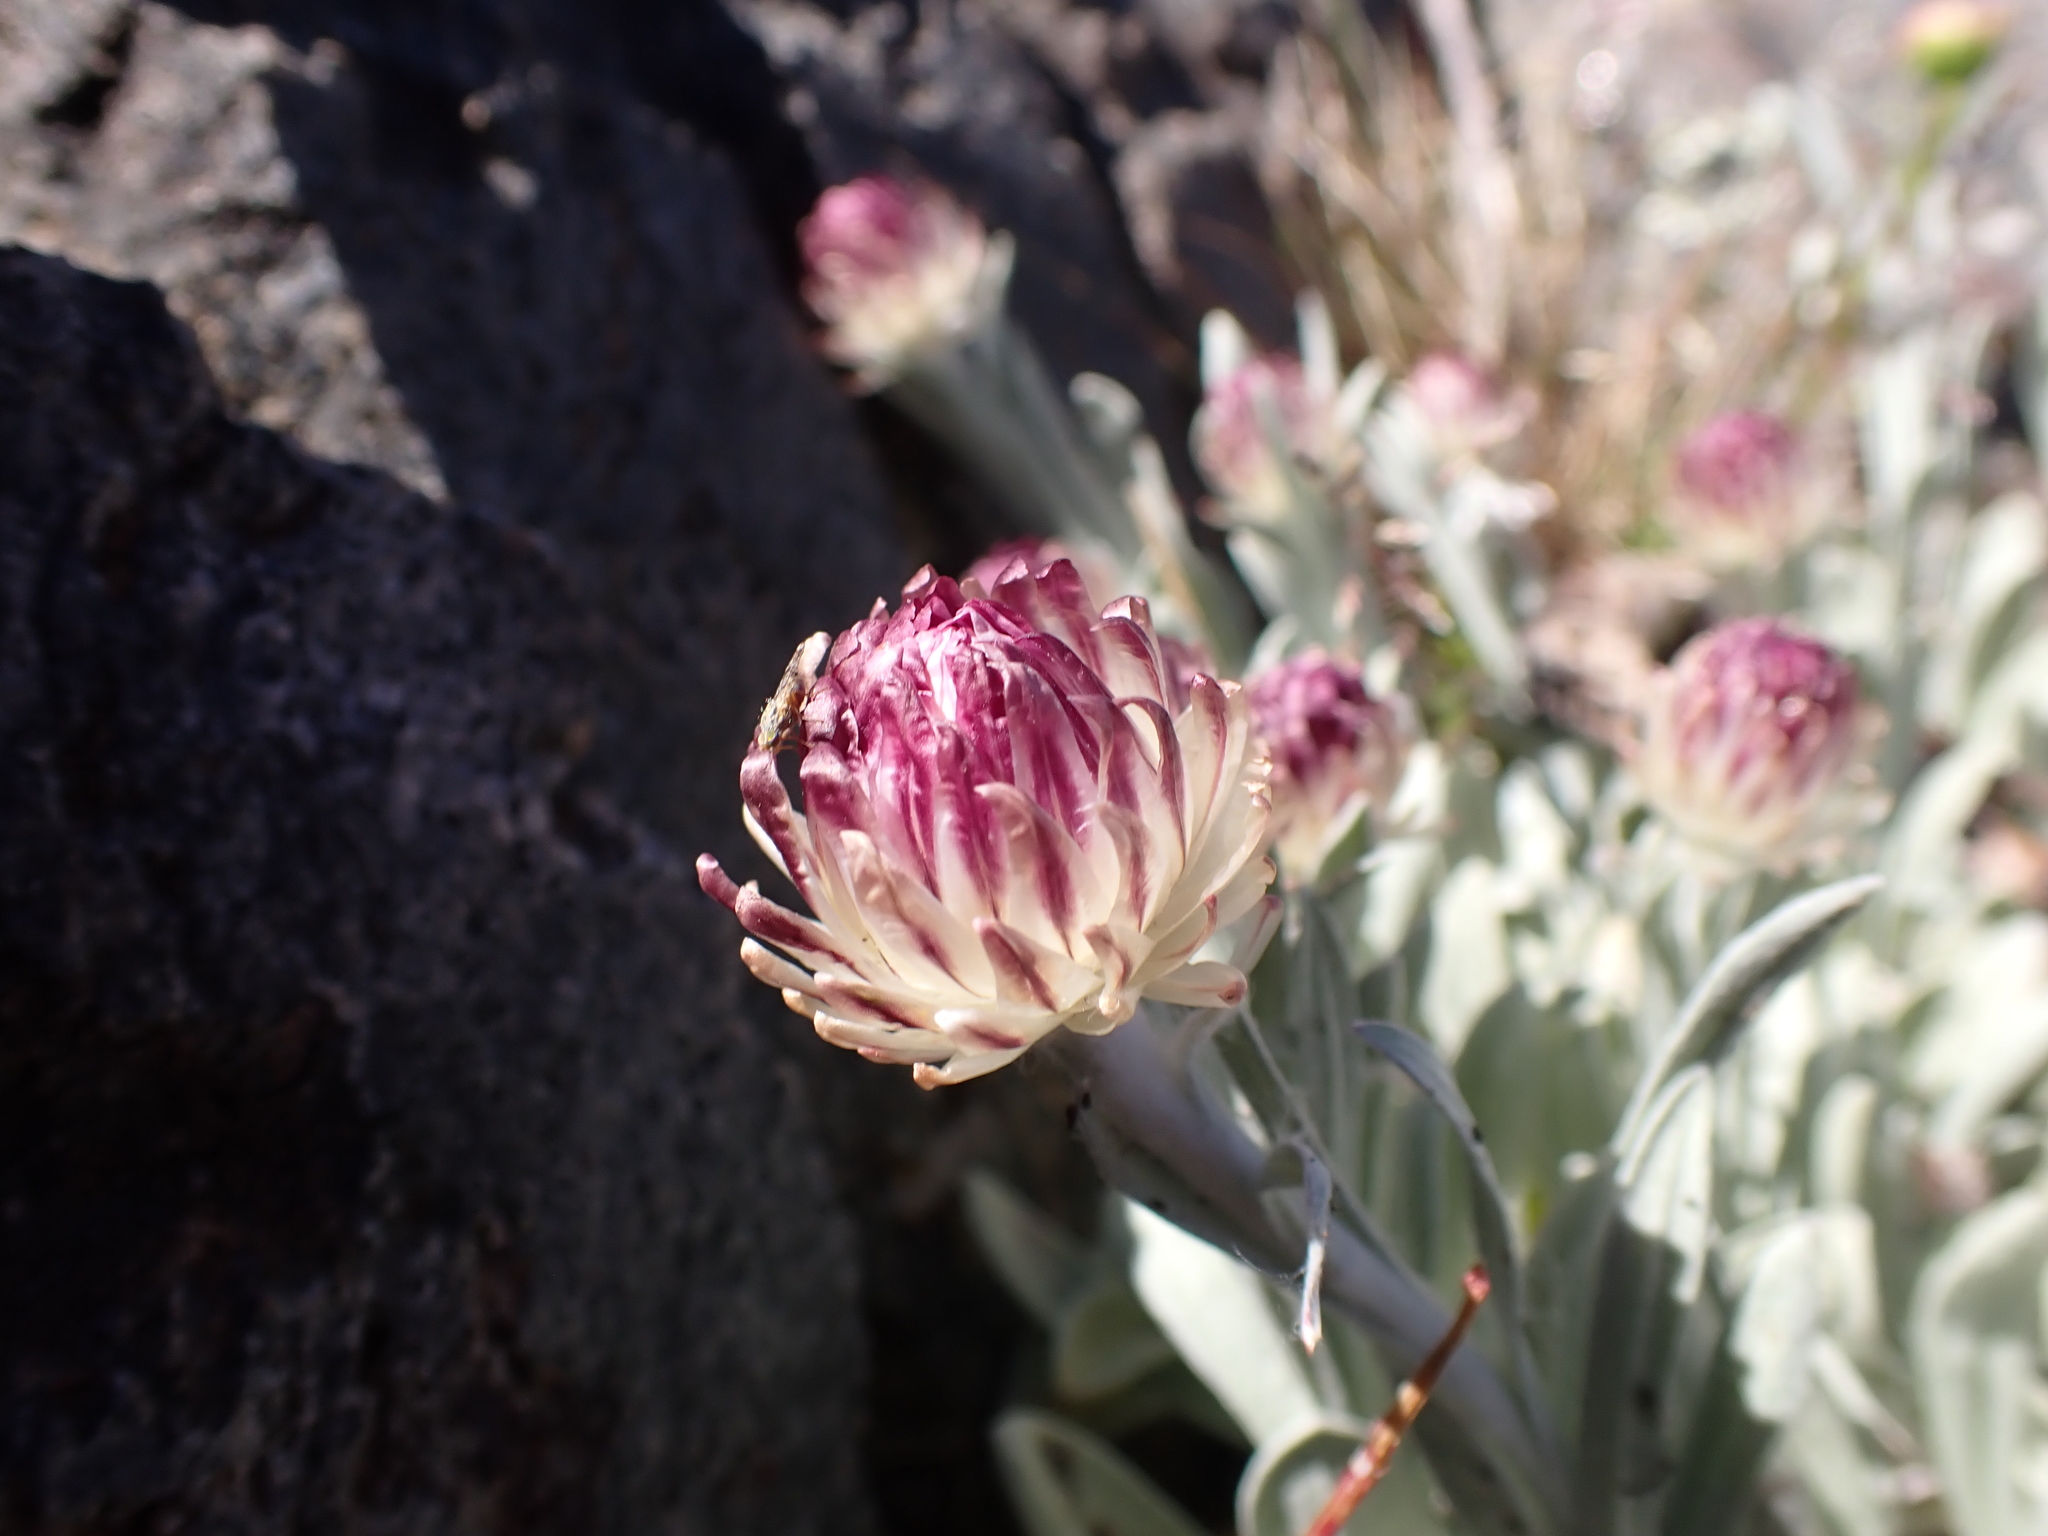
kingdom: Plantae
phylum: Tracheophyta
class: Magnoliopsida
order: Asterales
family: Asteraceae
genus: Leucochrysum
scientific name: Leucochrysum alpinum
